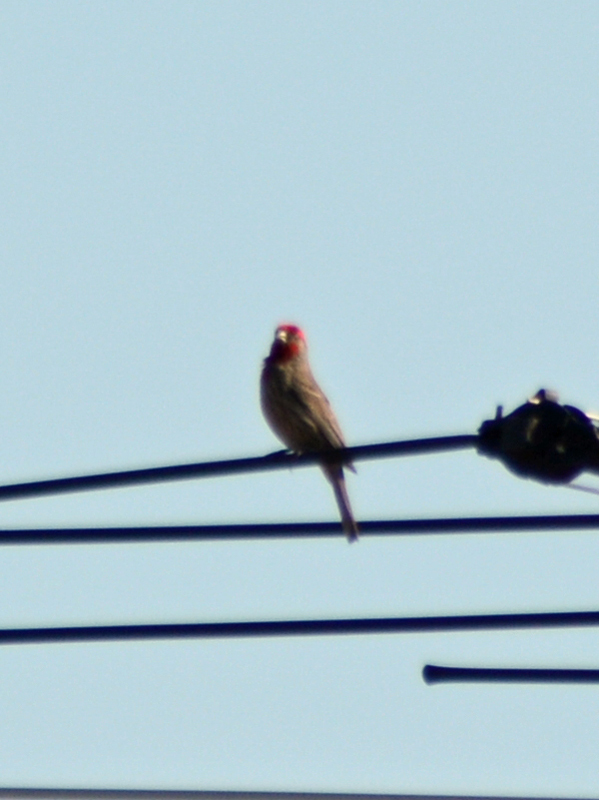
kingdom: Animalia
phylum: Chordata
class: Aves
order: Passeriformes
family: Fringillidae
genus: Haemorhous
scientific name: Haemorhous mexicanus
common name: House finch
